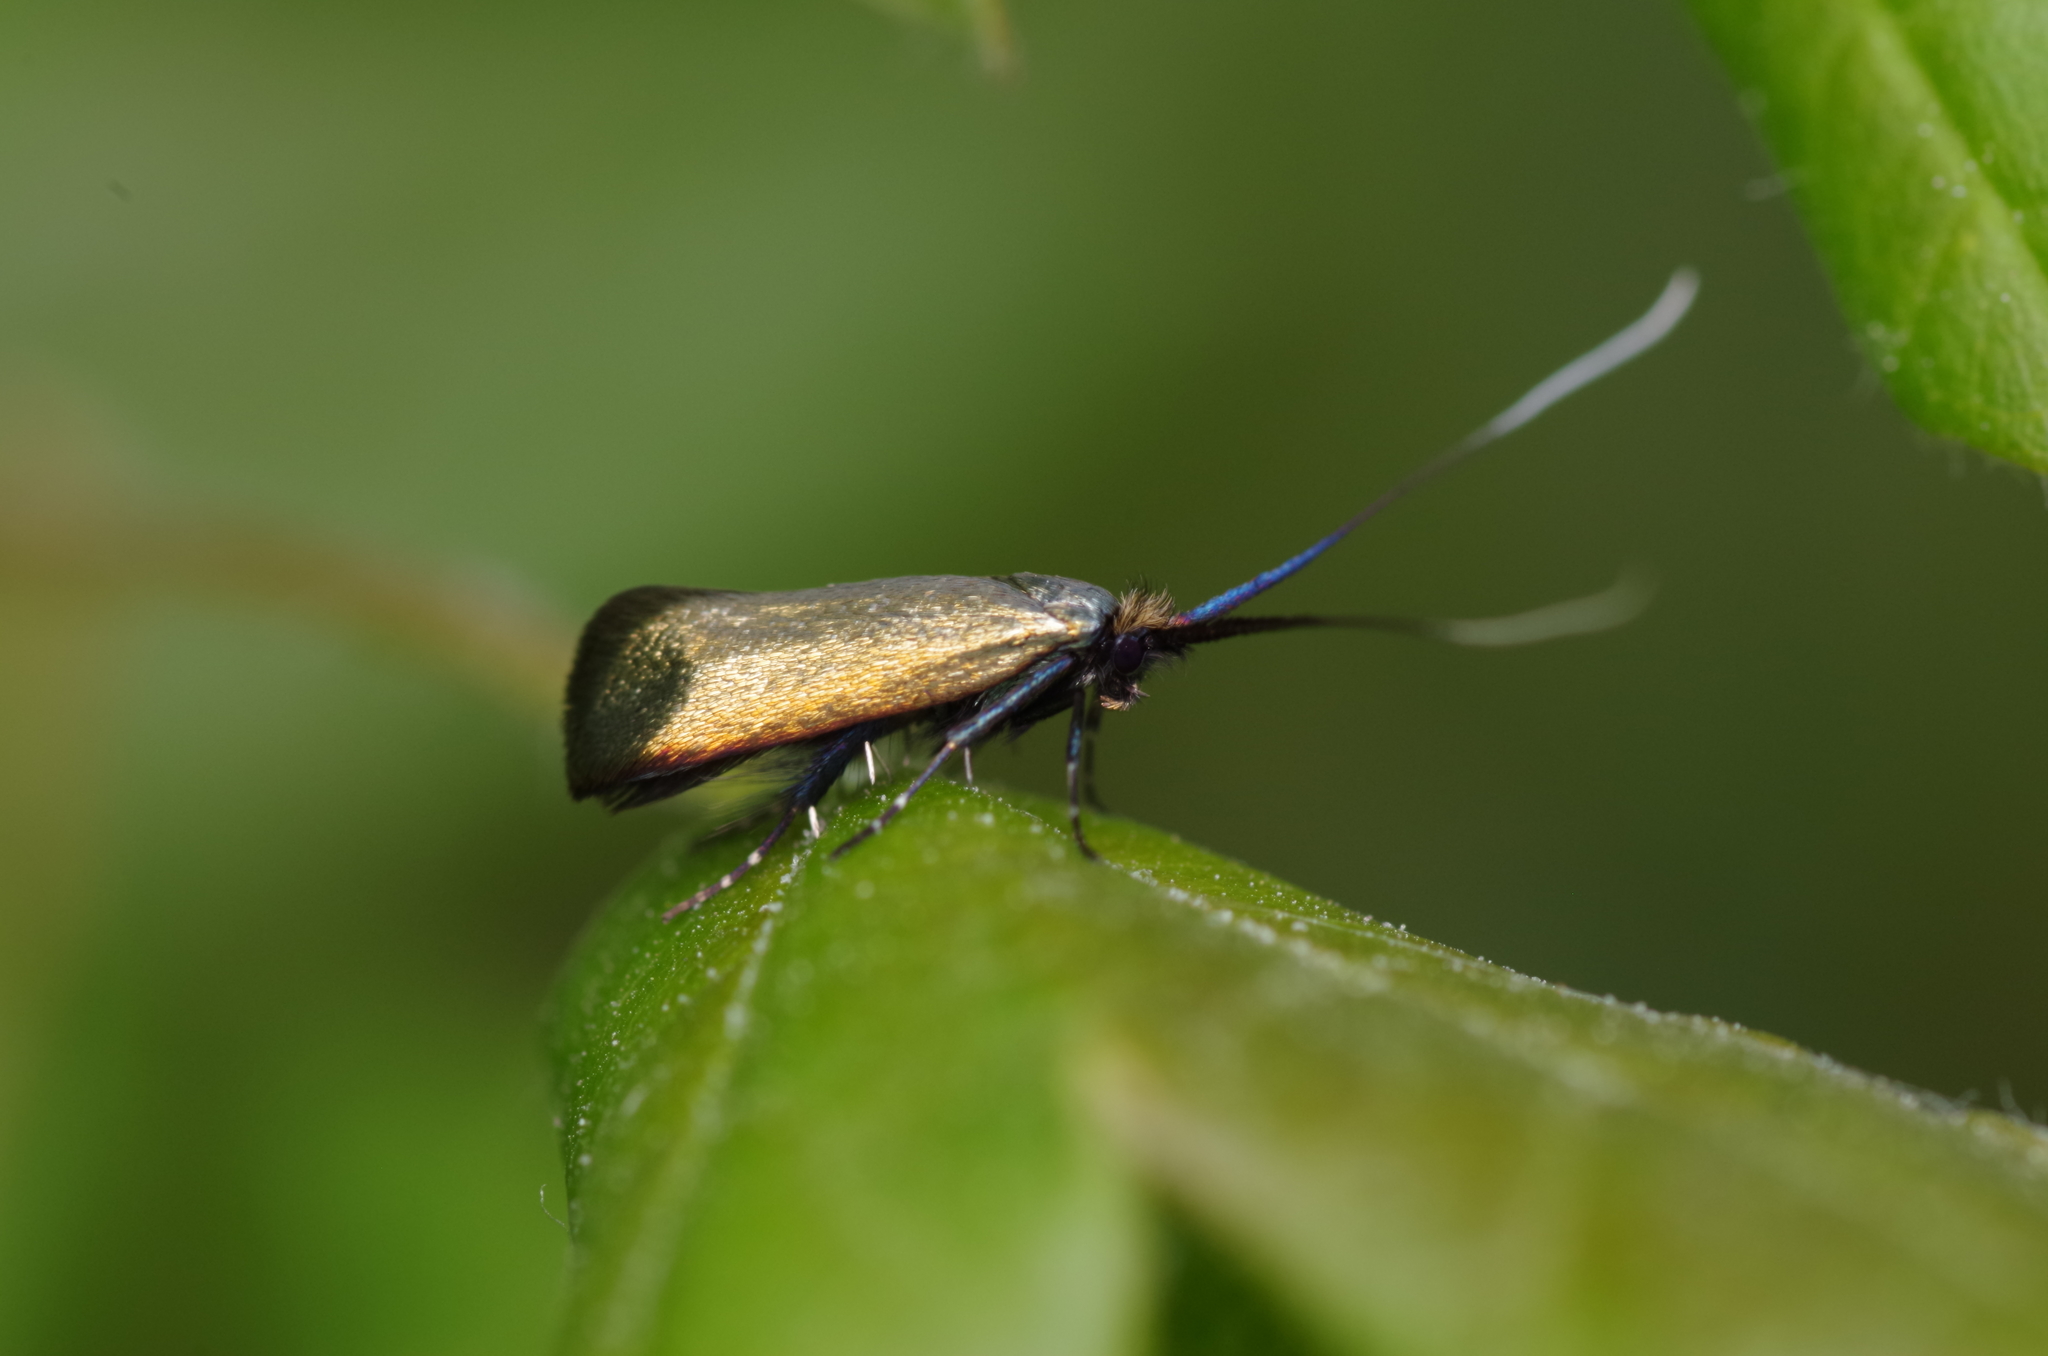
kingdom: Animalia
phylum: Arthropoda
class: Insecta
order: Lepidoptera
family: Adelidae
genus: Adela
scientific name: Adela viridella
